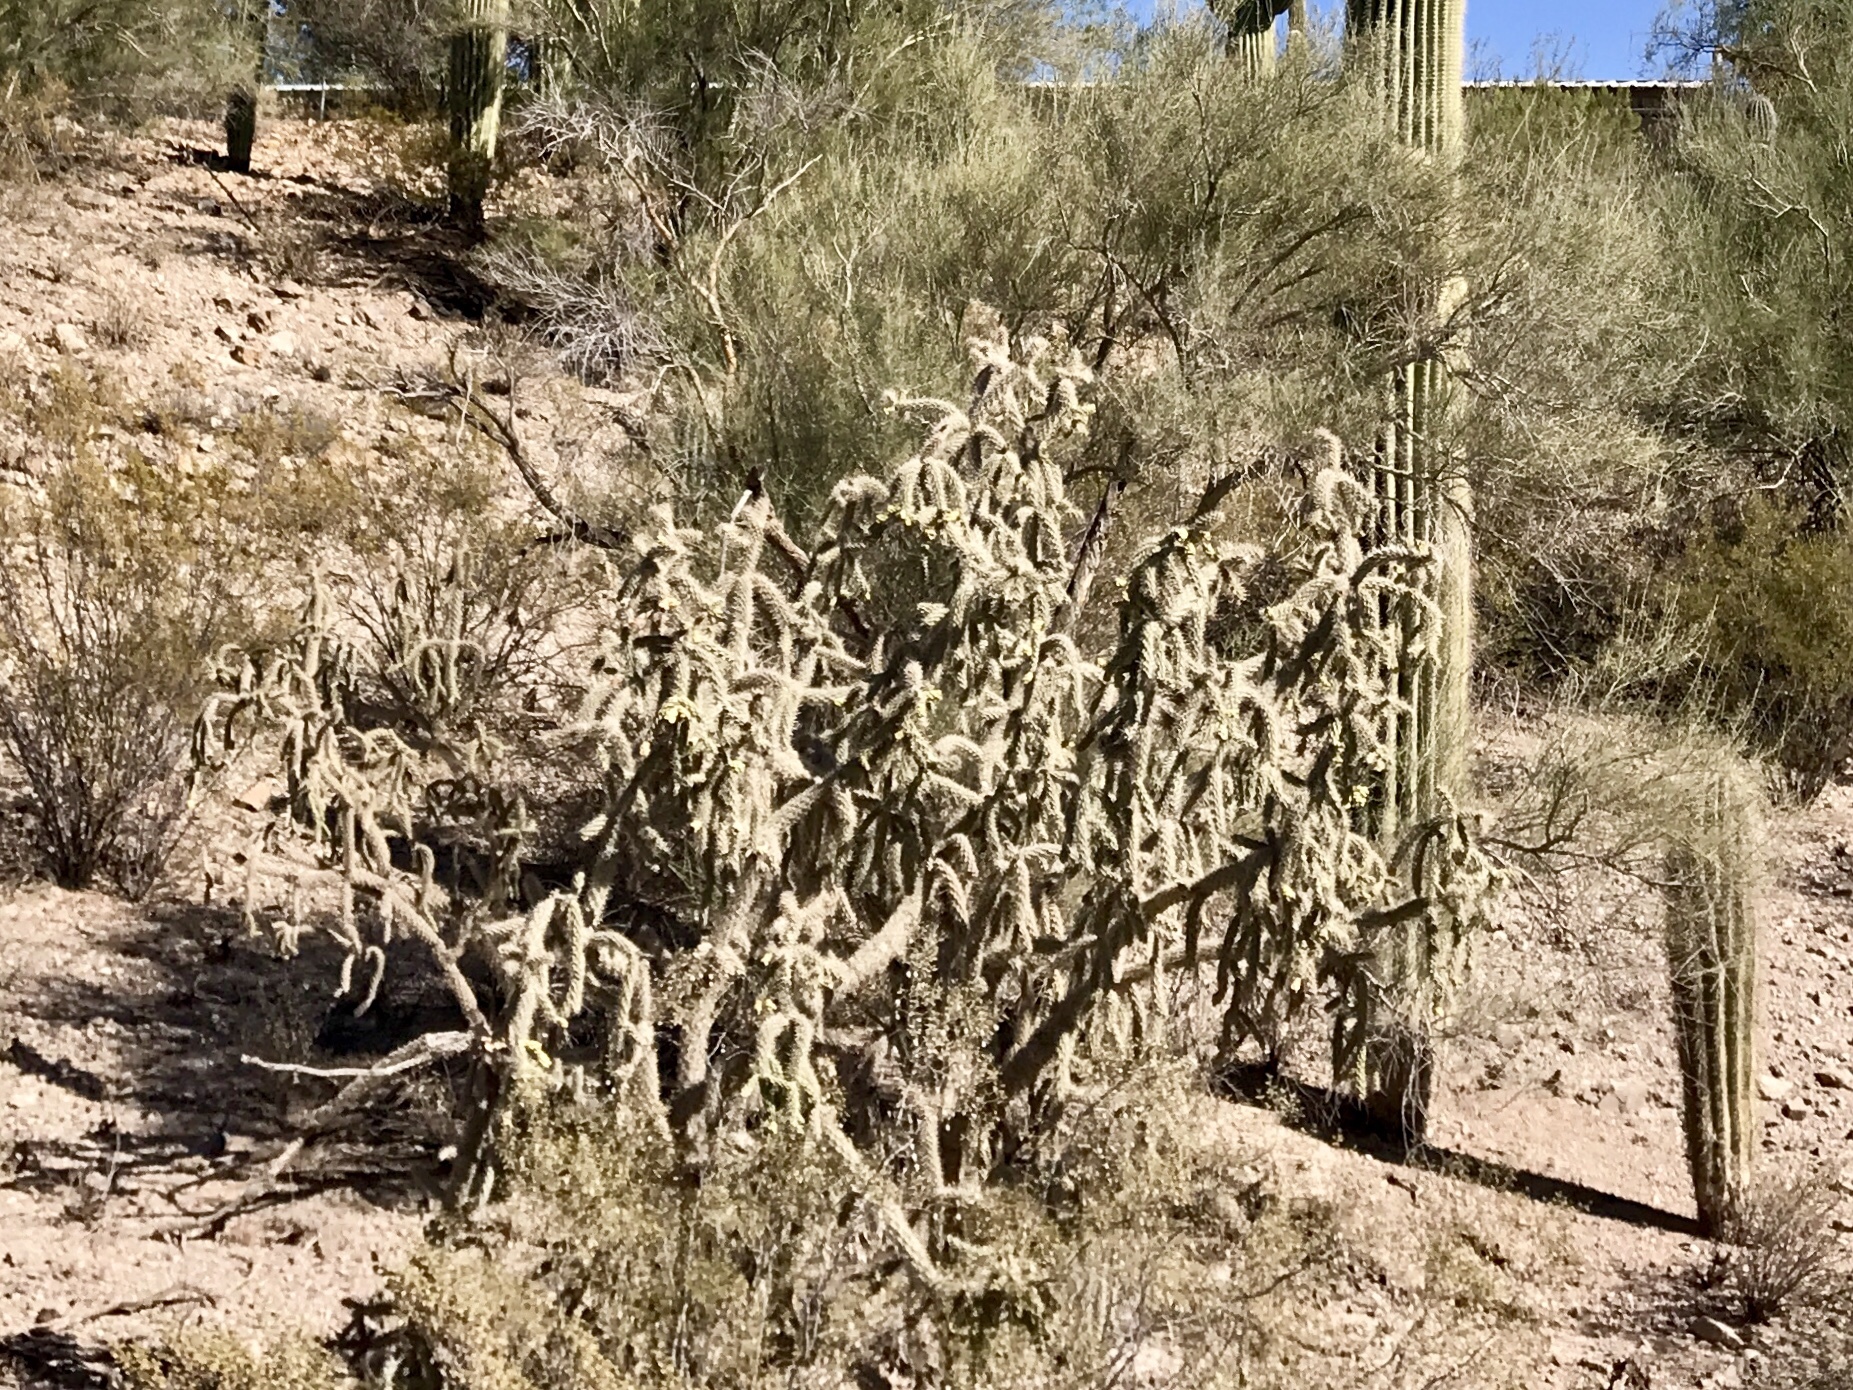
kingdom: Plantae
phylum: Tracheophyta
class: Magnoliopsida
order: Caryophyllales
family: Cactaceae
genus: Cylindropuntia
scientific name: Cylindropuntia imbricata
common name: Candelabrum cactus
